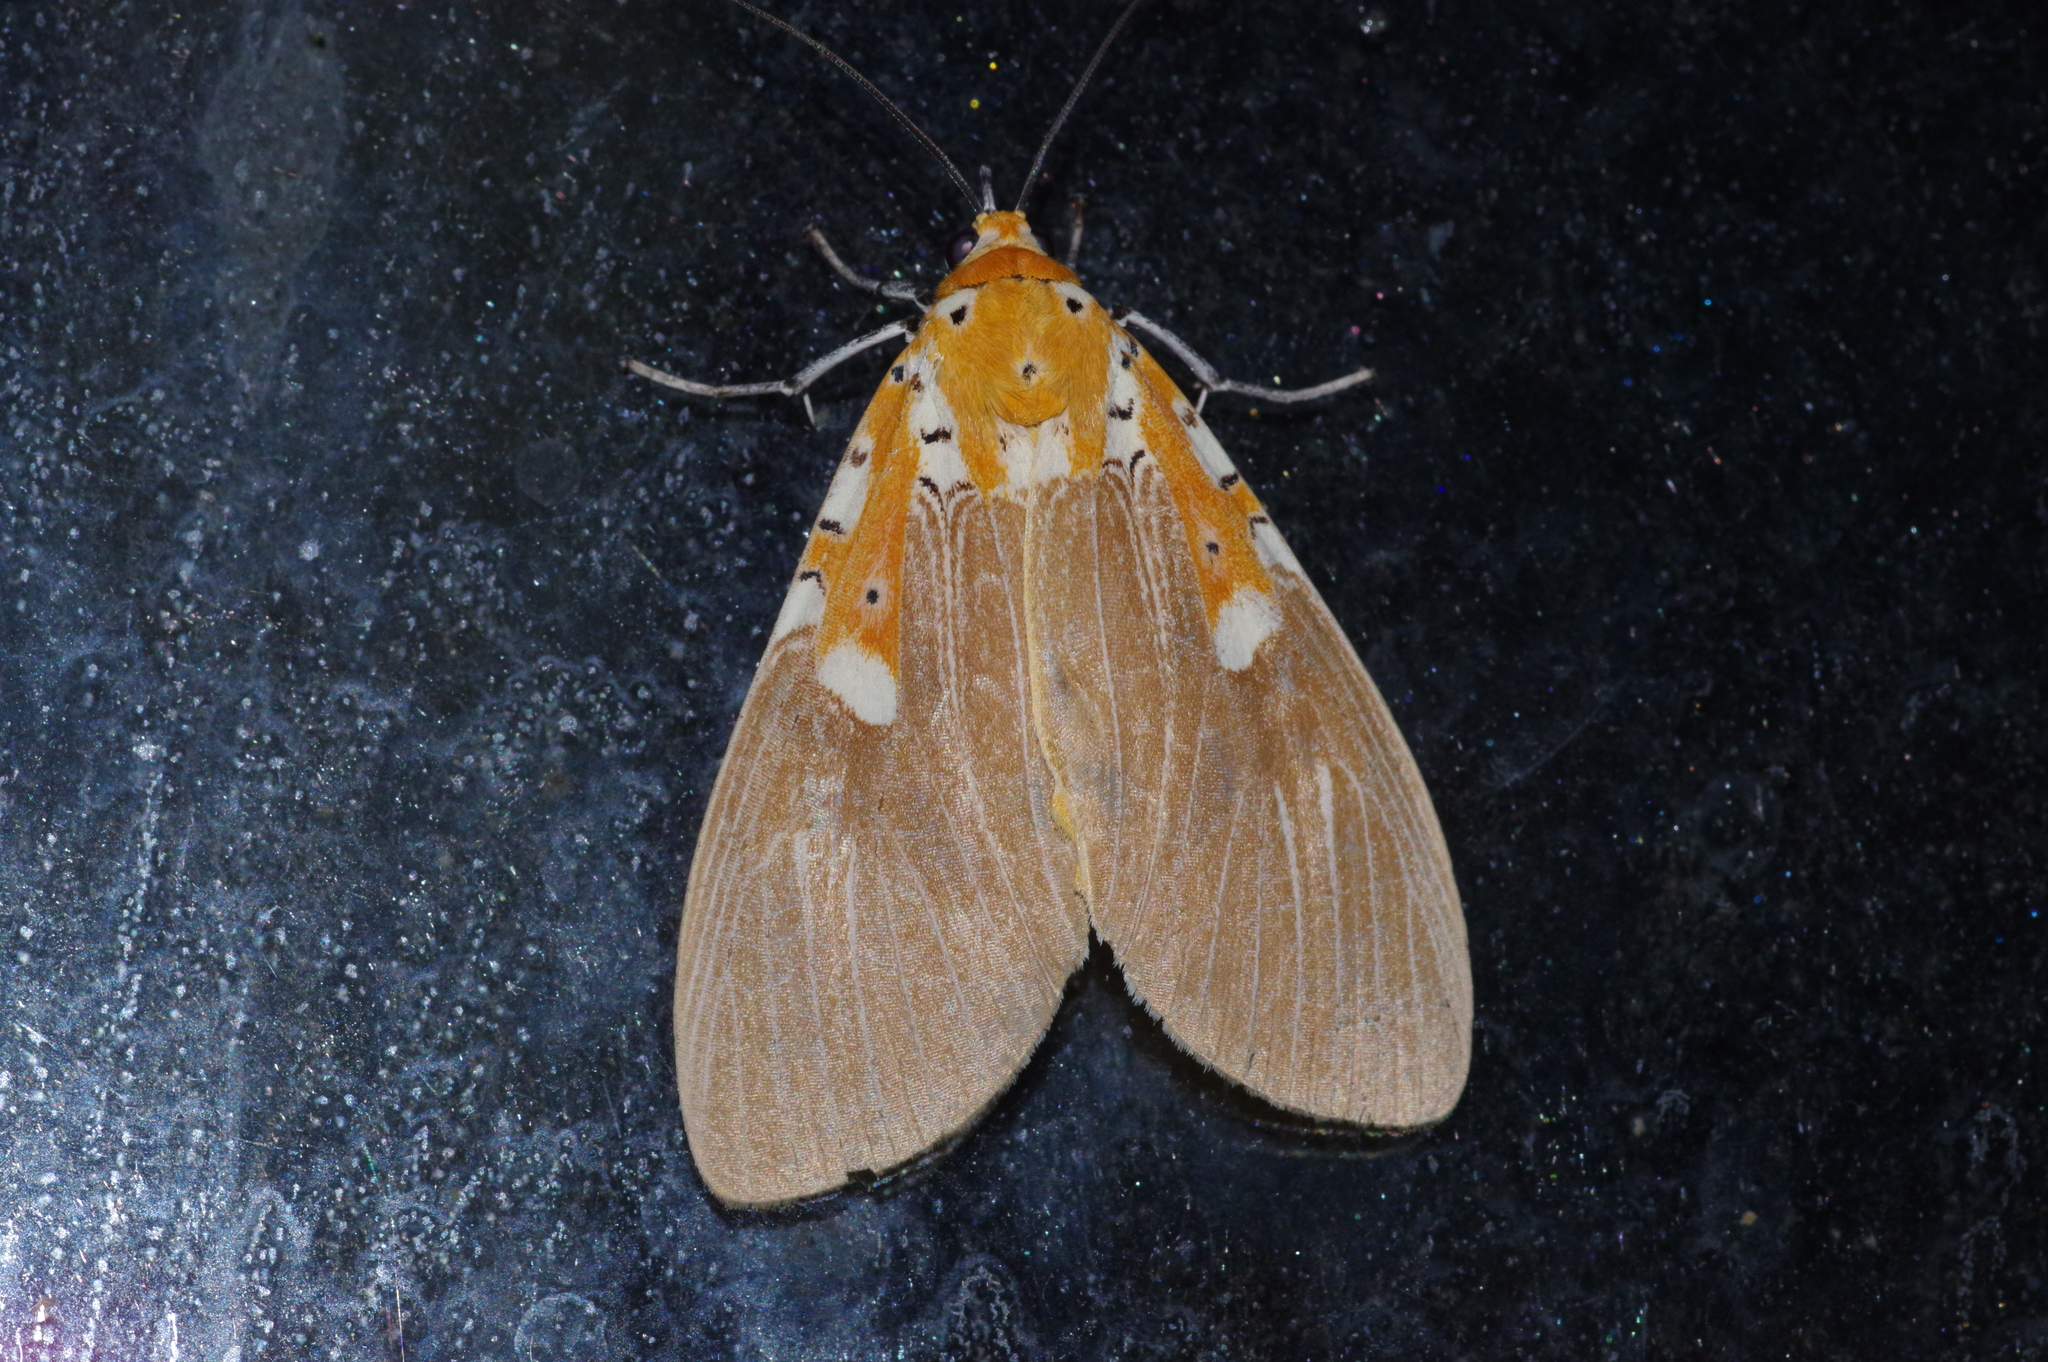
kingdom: Animalia
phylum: Arthropoda
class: Insecta
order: Lepidoptera
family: Erebidae
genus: Asota
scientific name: Asota ficus
